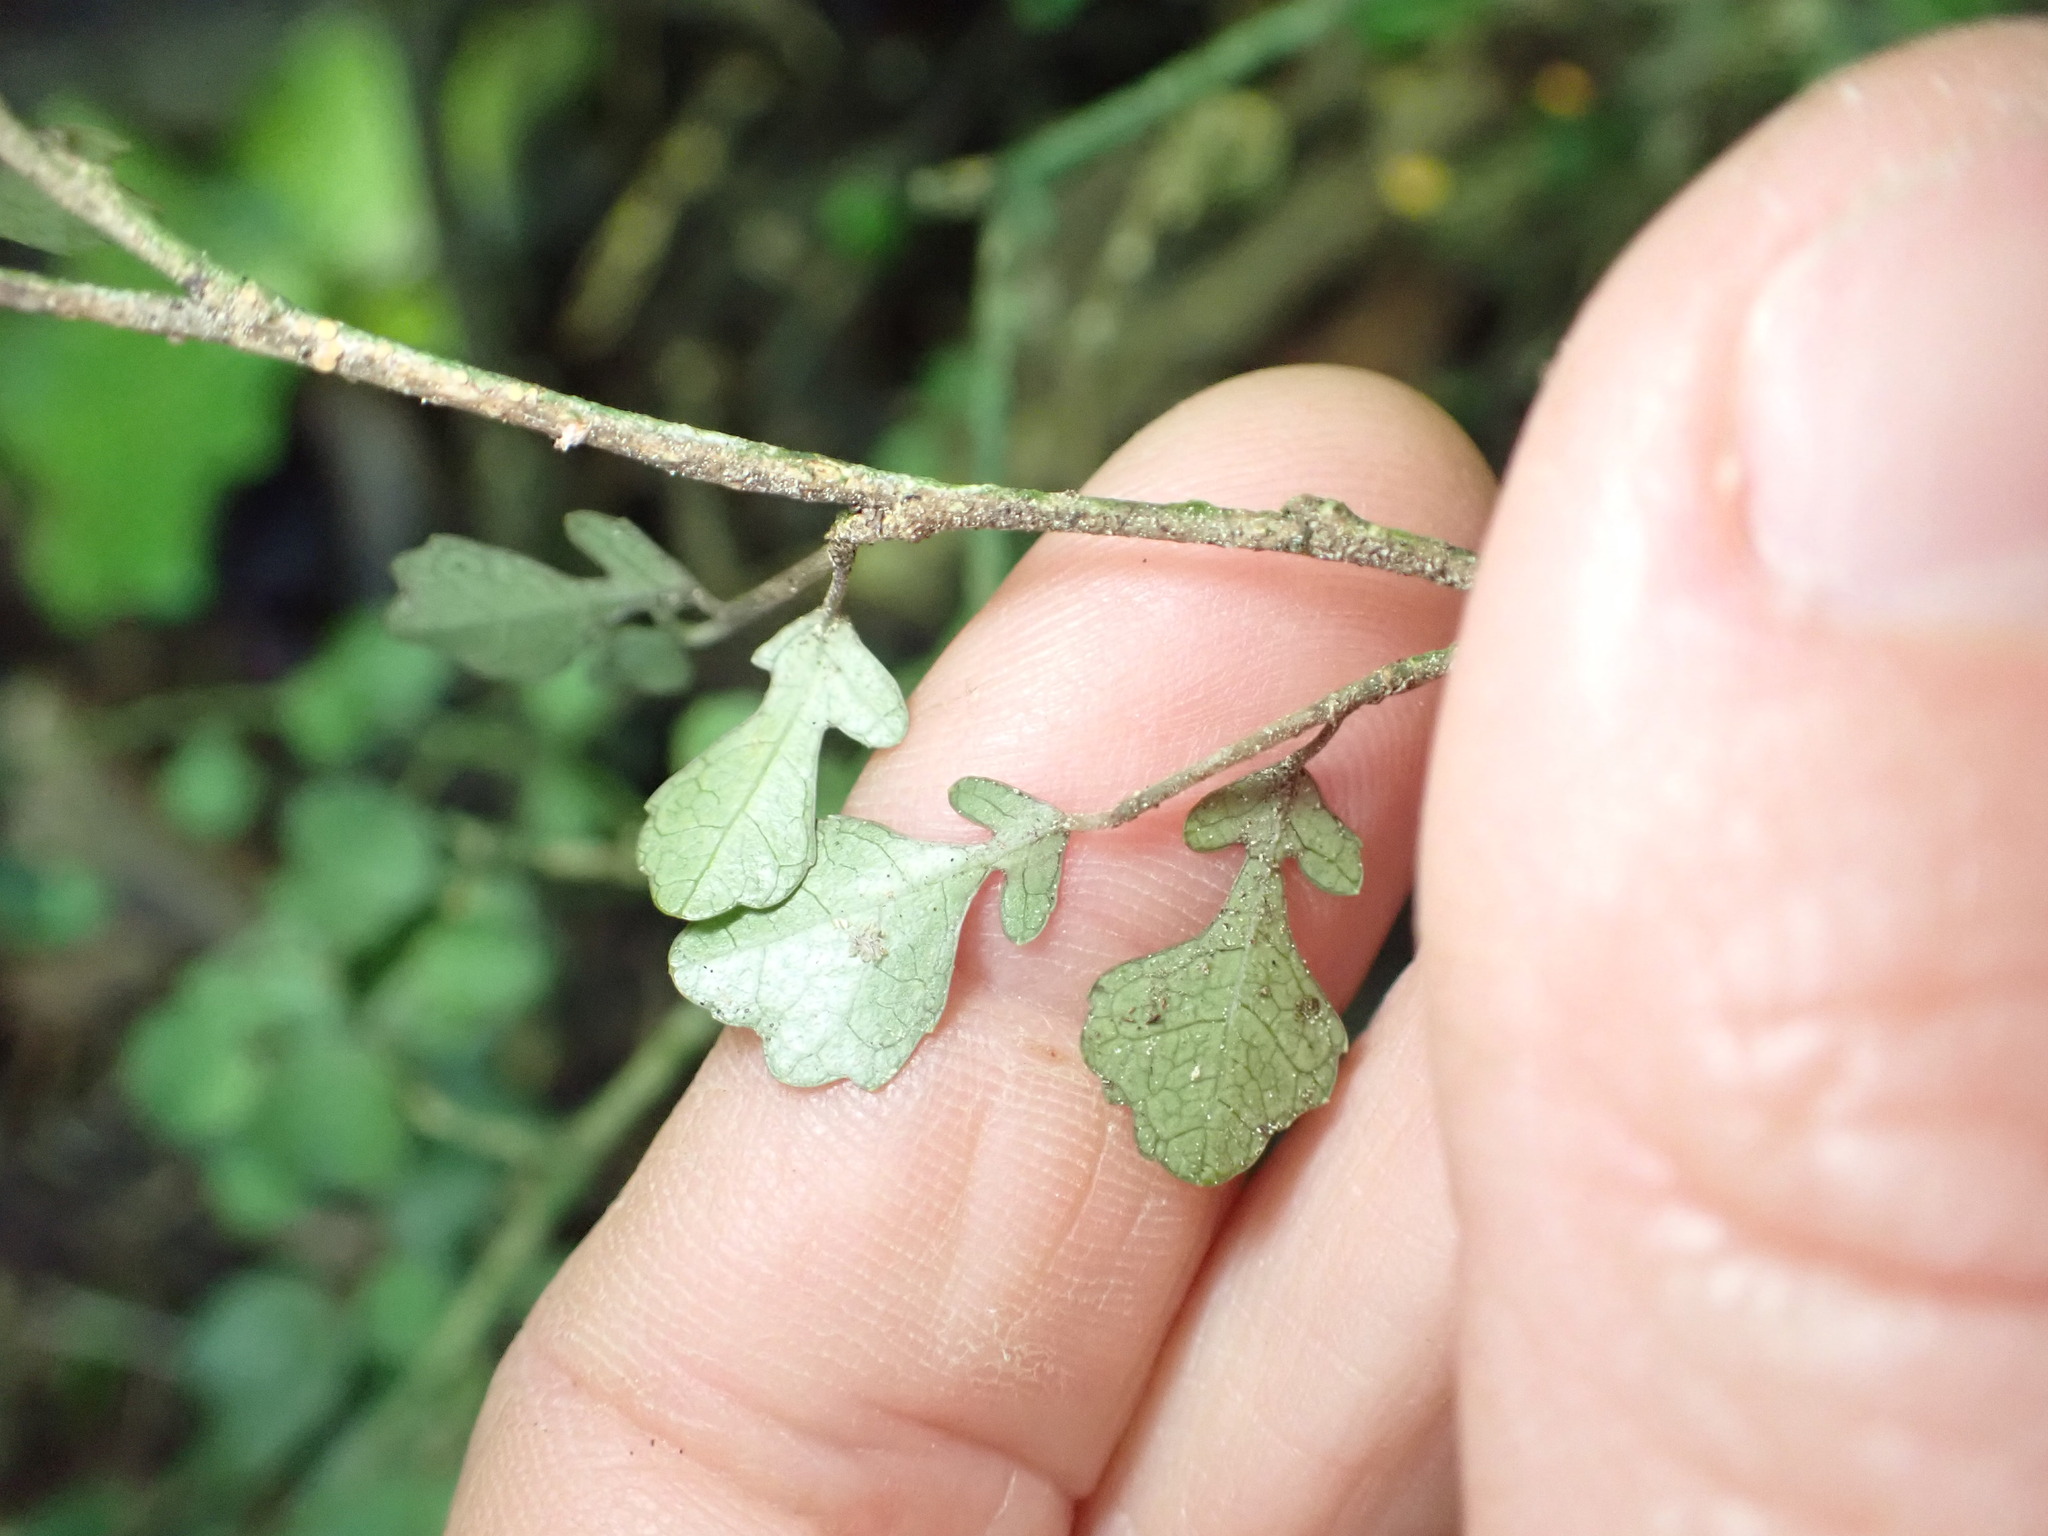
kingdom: Plantae
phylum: Tracheophyta
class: Magnoliopsida
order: Rosales
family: Moraceae
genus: Paratrophis
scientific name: Paratrophis microphylla
